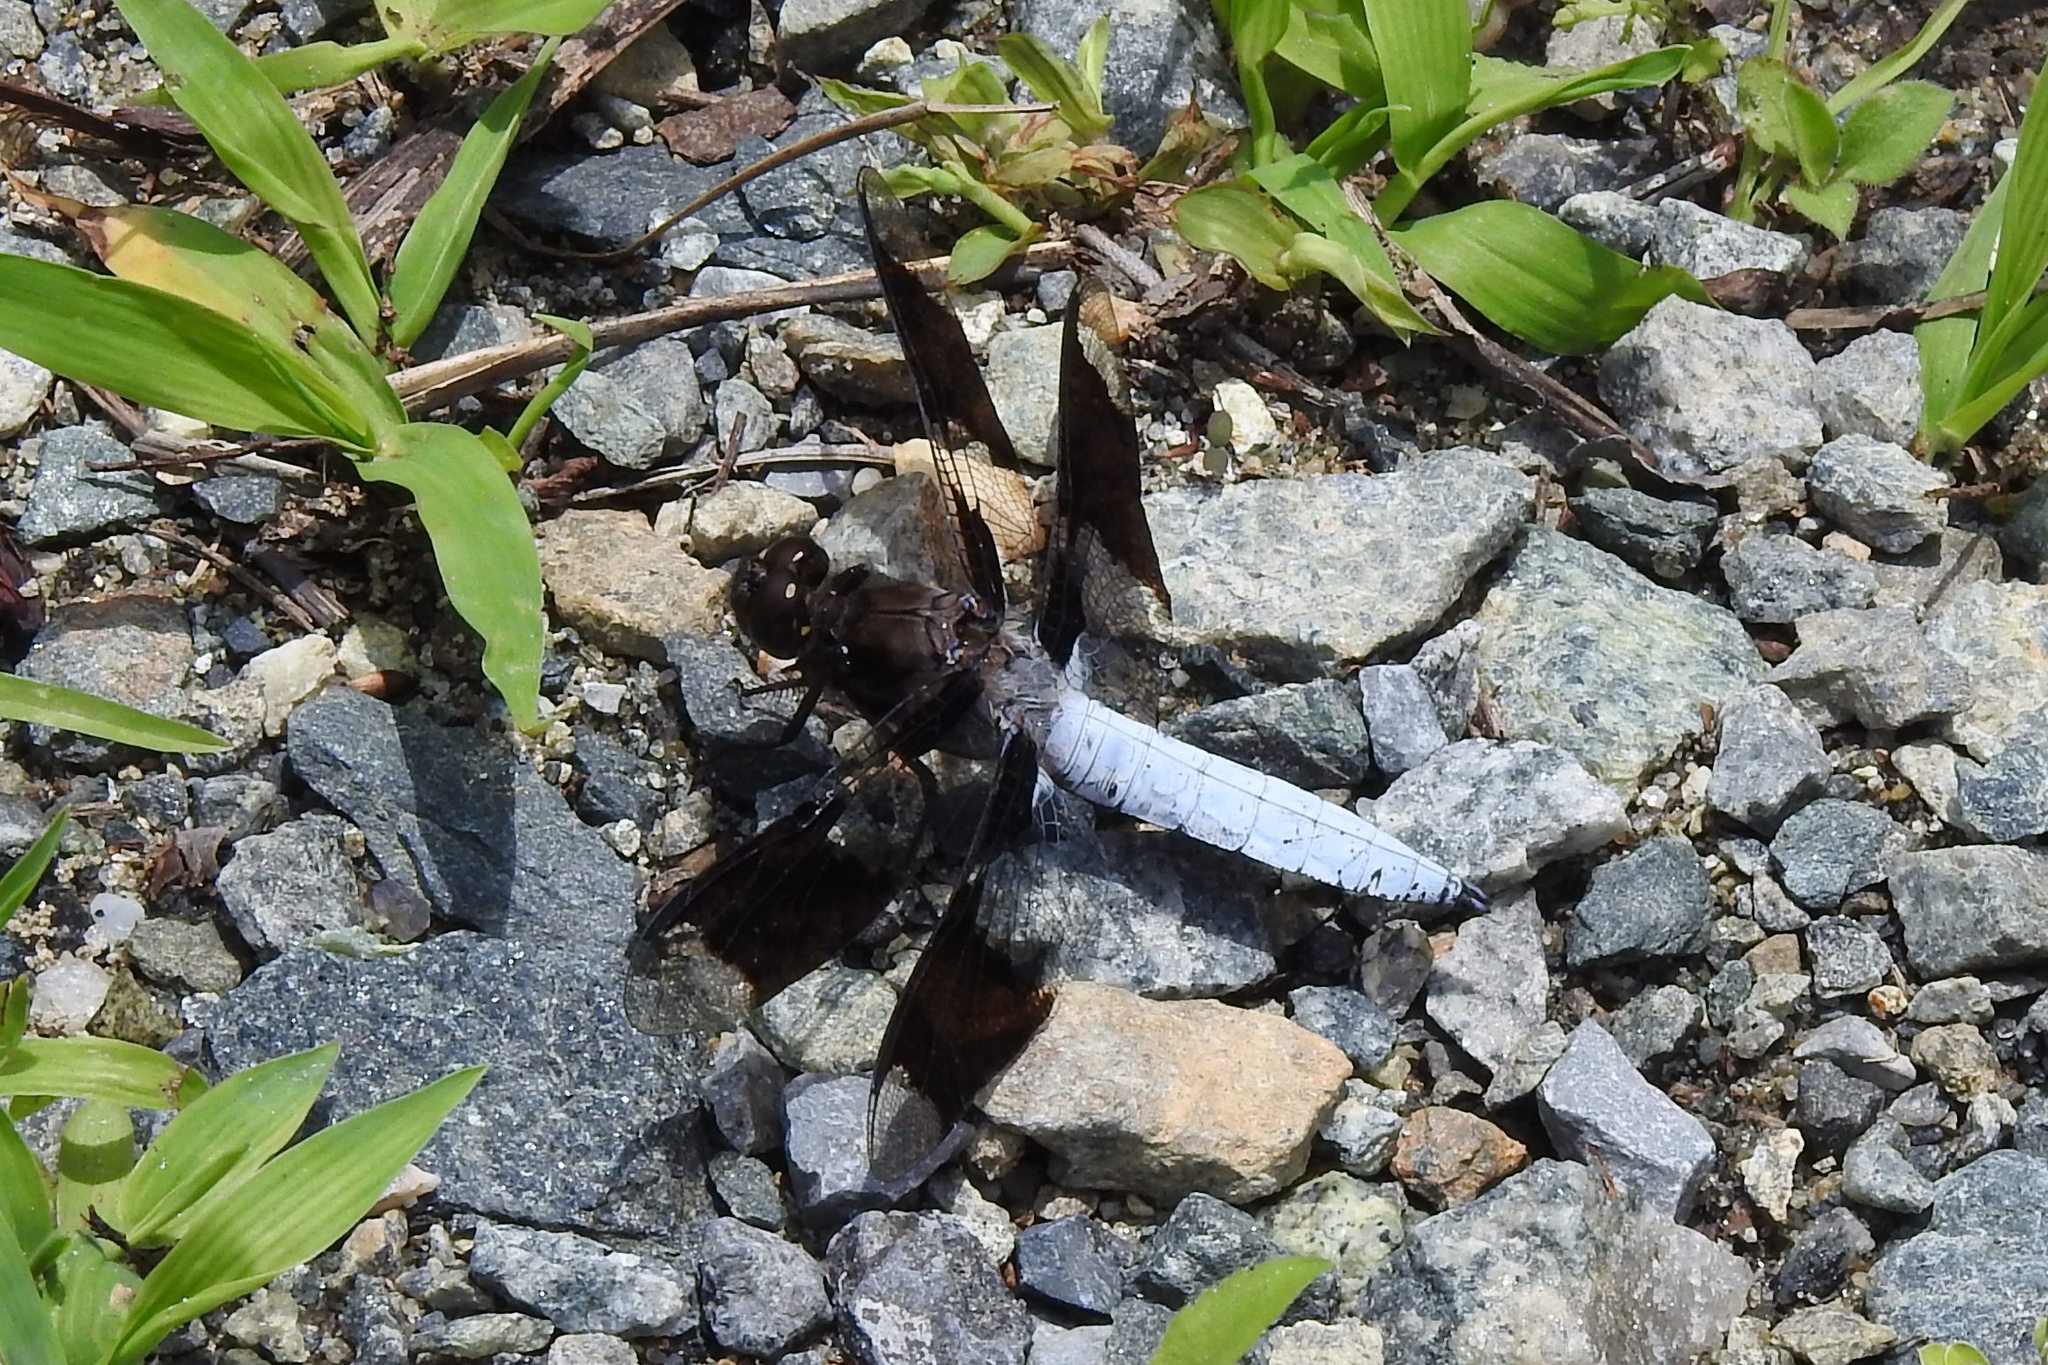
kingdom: Animalia
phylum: Arthropoda
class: Insecta
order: Odonata
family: Libellulidae
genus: Plathemis
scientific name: Plathemis lydia
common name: Common whitetail
